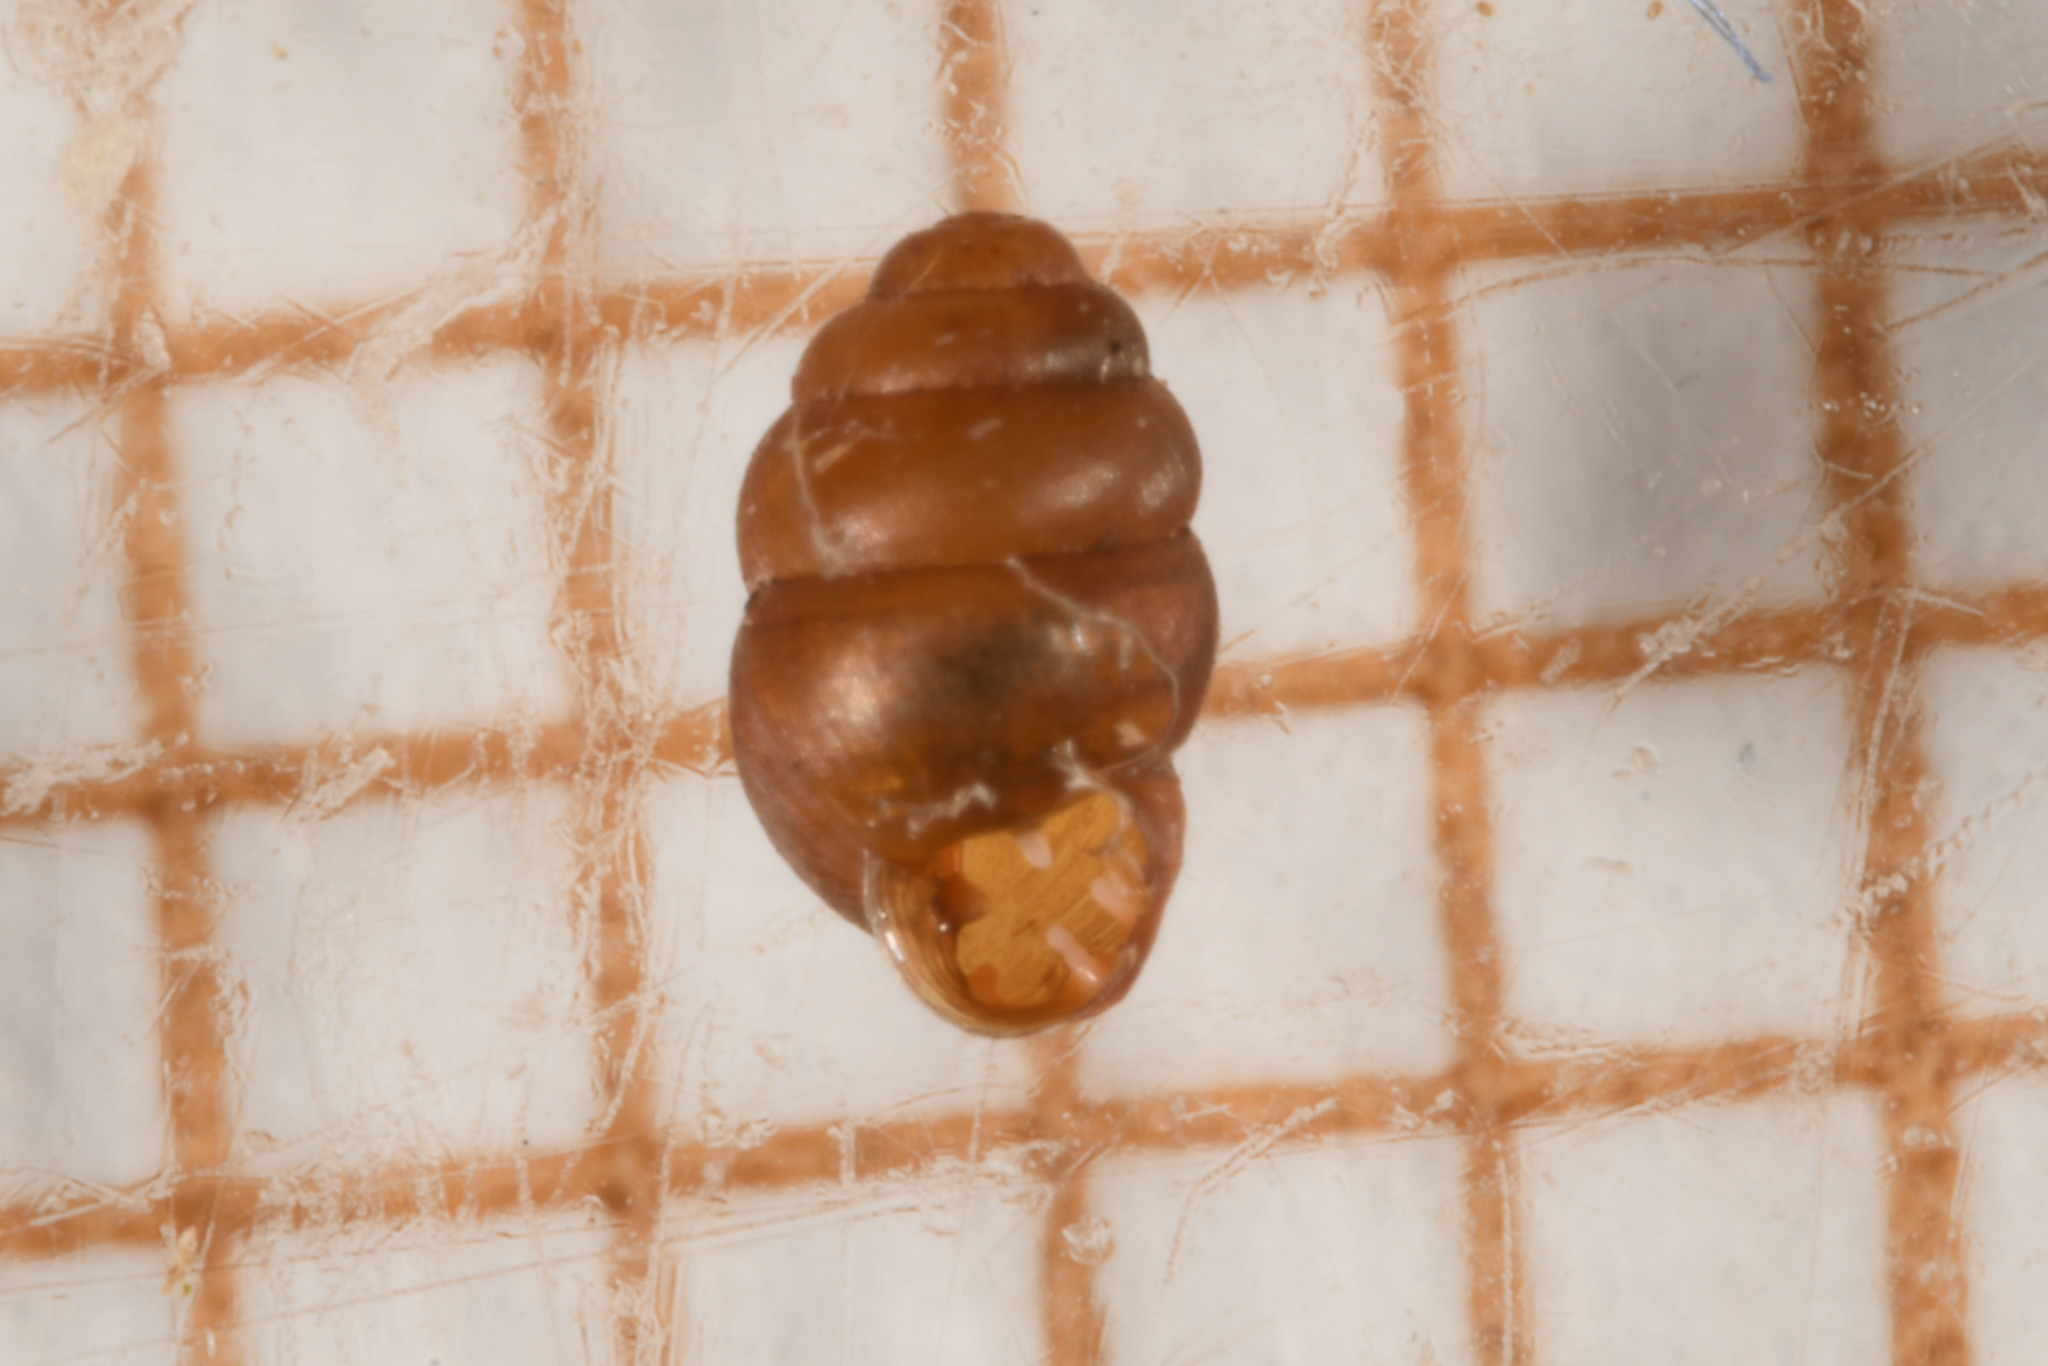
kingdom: Animalia
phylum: Mollusca
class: Gastropoda
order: Stylommatophora
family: Vertiginidae
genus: Vertigo
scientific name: Vertigo pygmaea
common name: Common whorl snail
